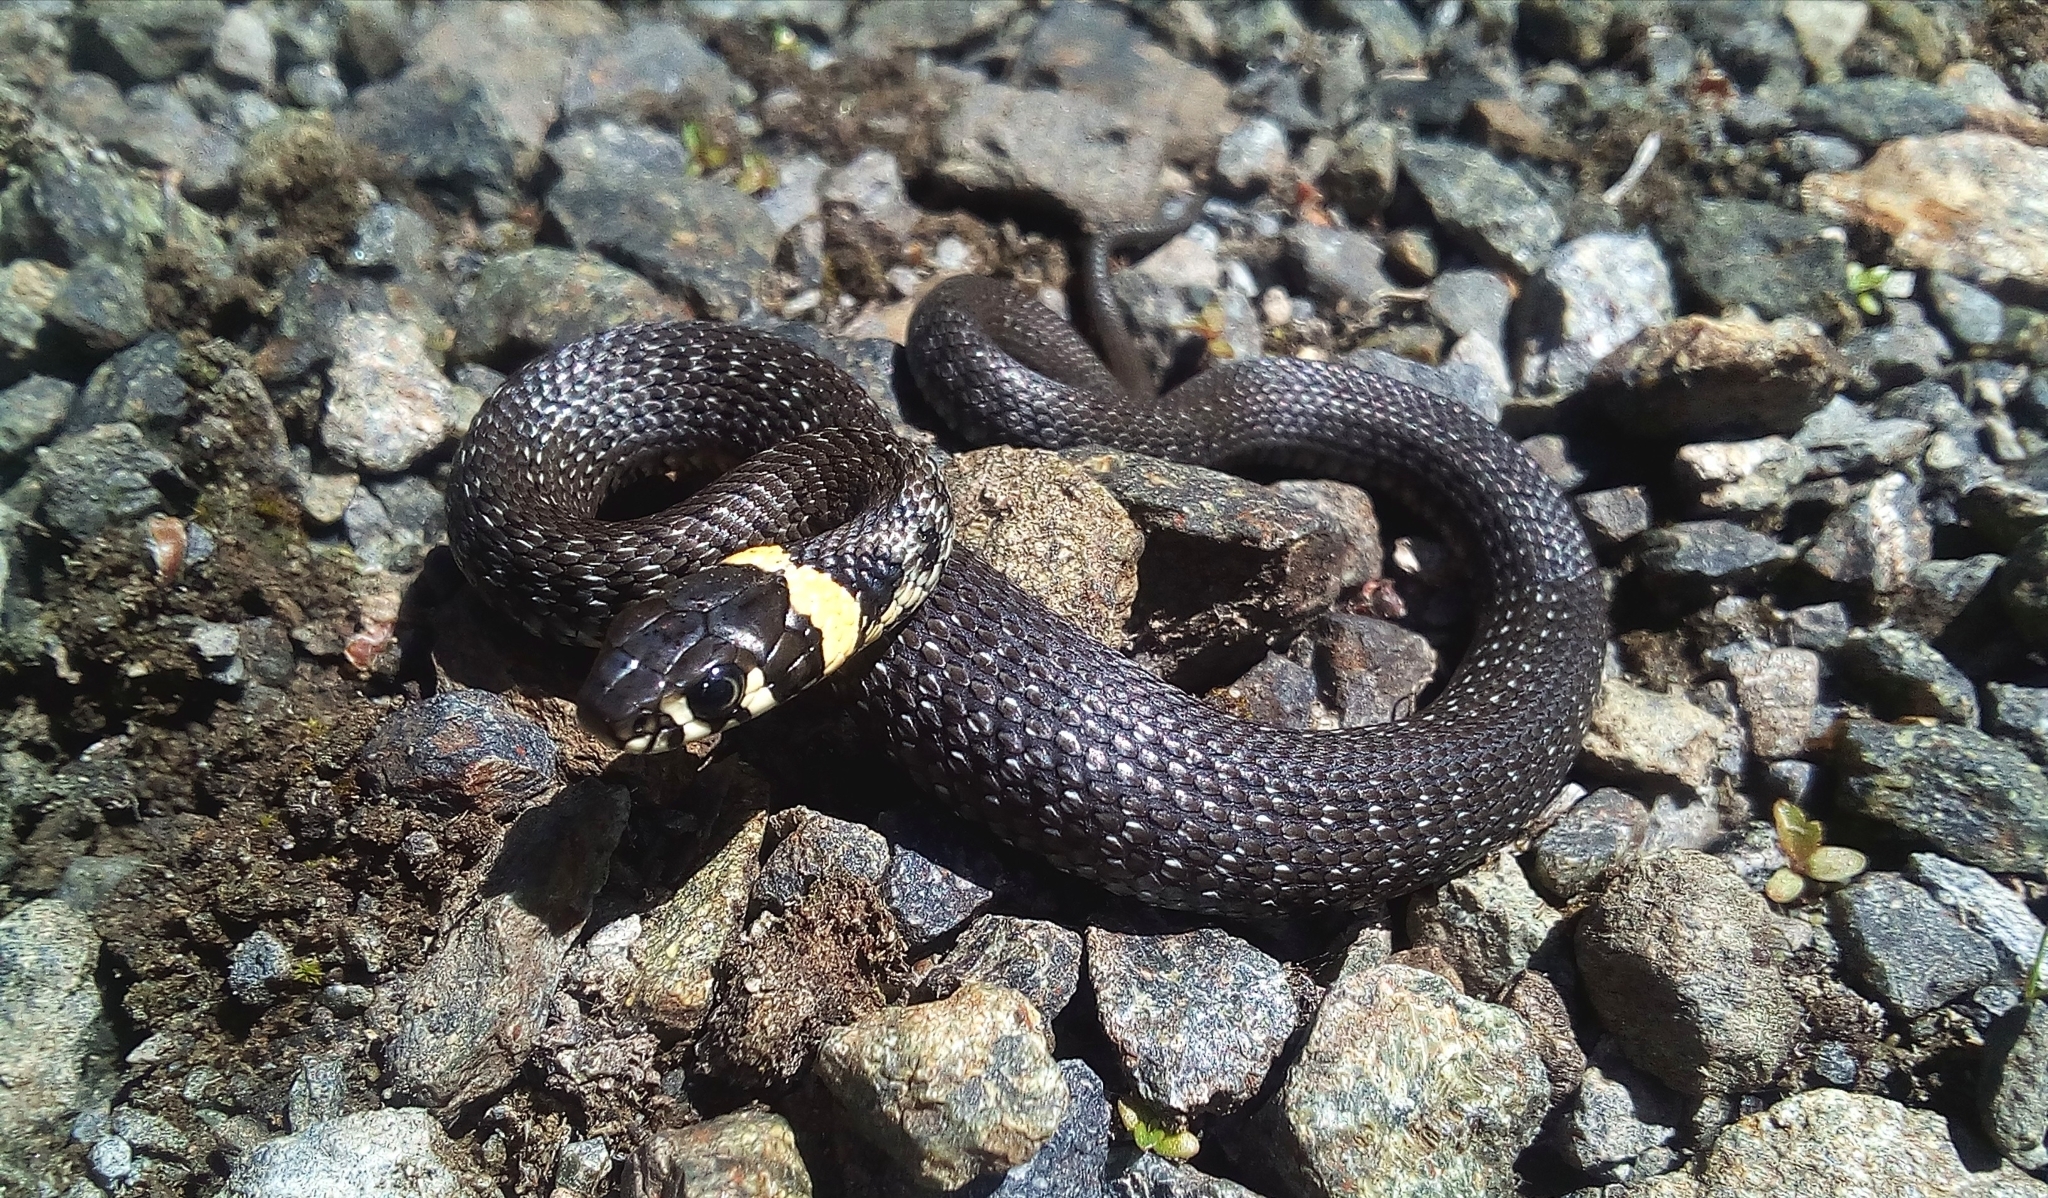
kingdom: Animalia
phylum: Chordata
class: Squamata
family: Colubridae
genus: Natrix
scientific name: Natrix natrix
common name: Grass snake
